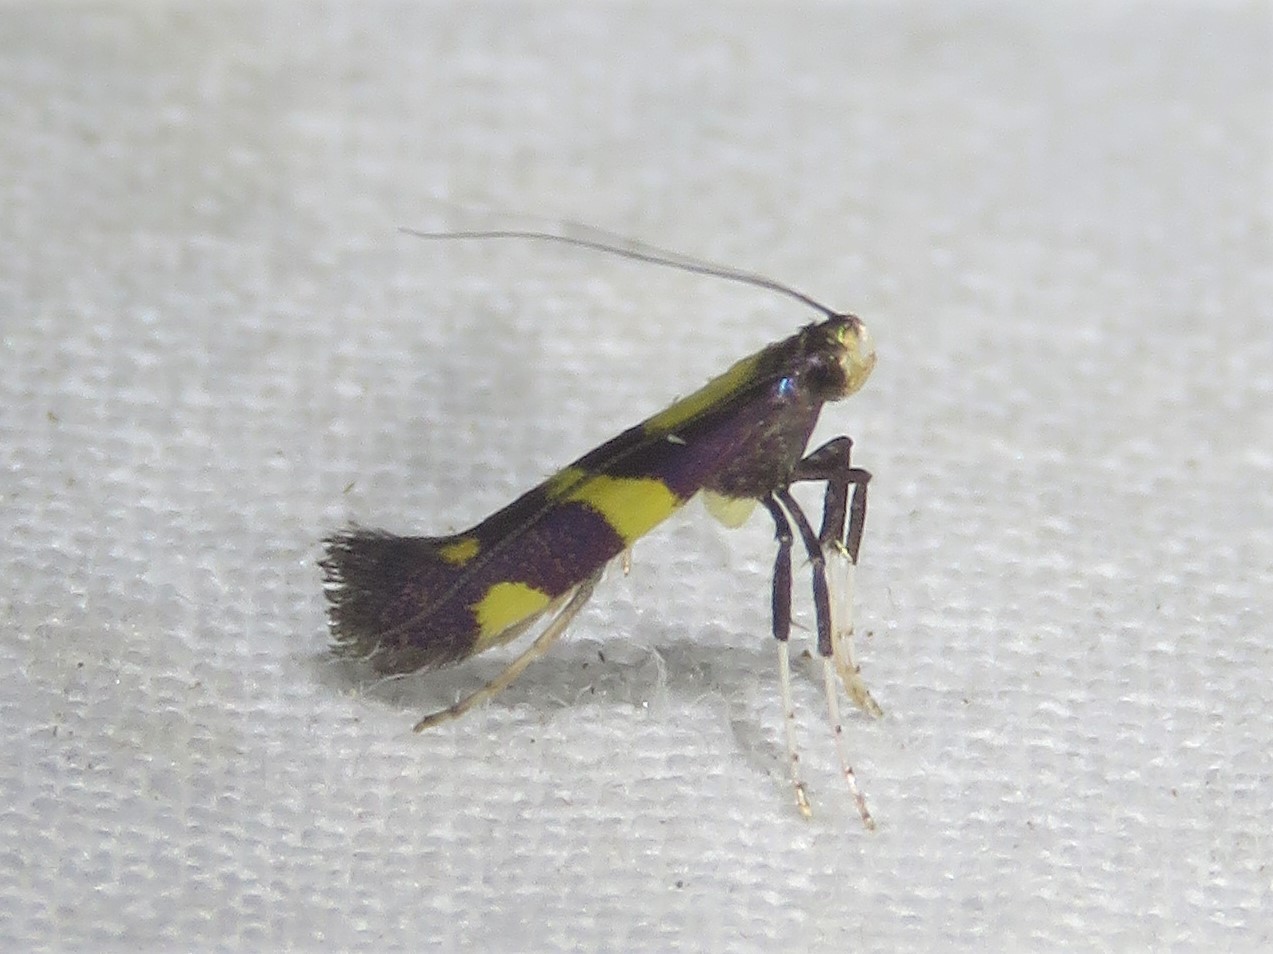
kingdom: Animalia
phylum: Arthropoda
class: Insecta
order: Lepidoptera
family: Gracillariidae
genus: Caloptilia
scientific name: Caloptilia vacciniella
